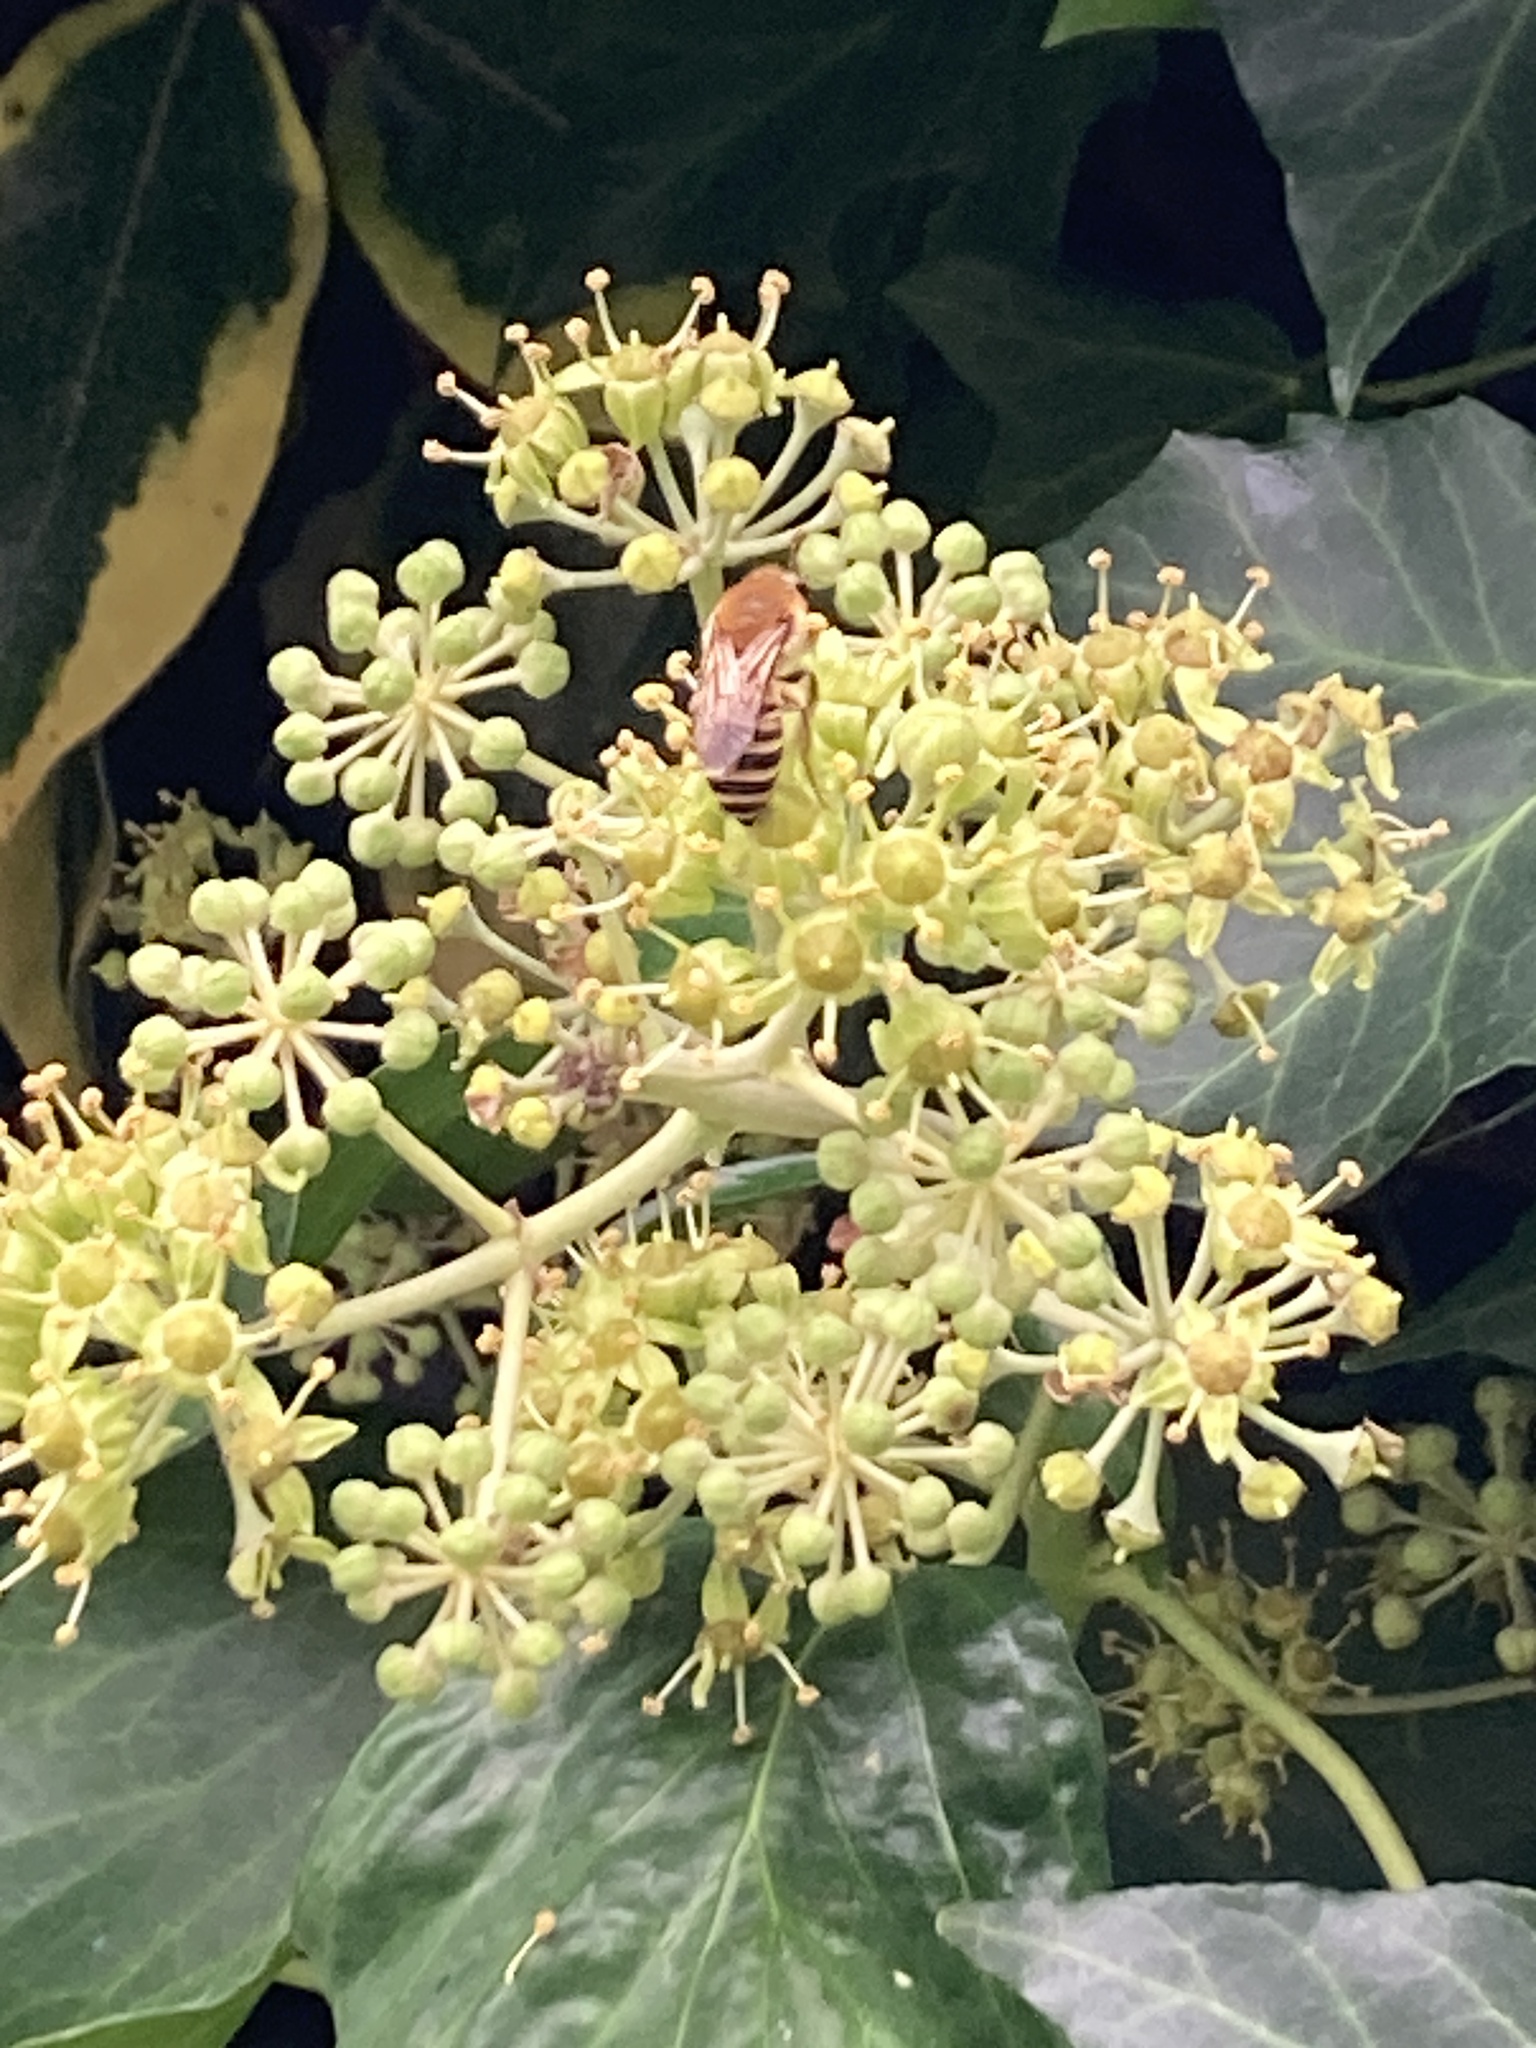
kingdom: Animalia
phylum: Arthropoda
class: Insecta
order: Hymenoptera
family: Colletidae
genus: Colletes
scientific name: Colletes hederae
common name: Ivy bee
